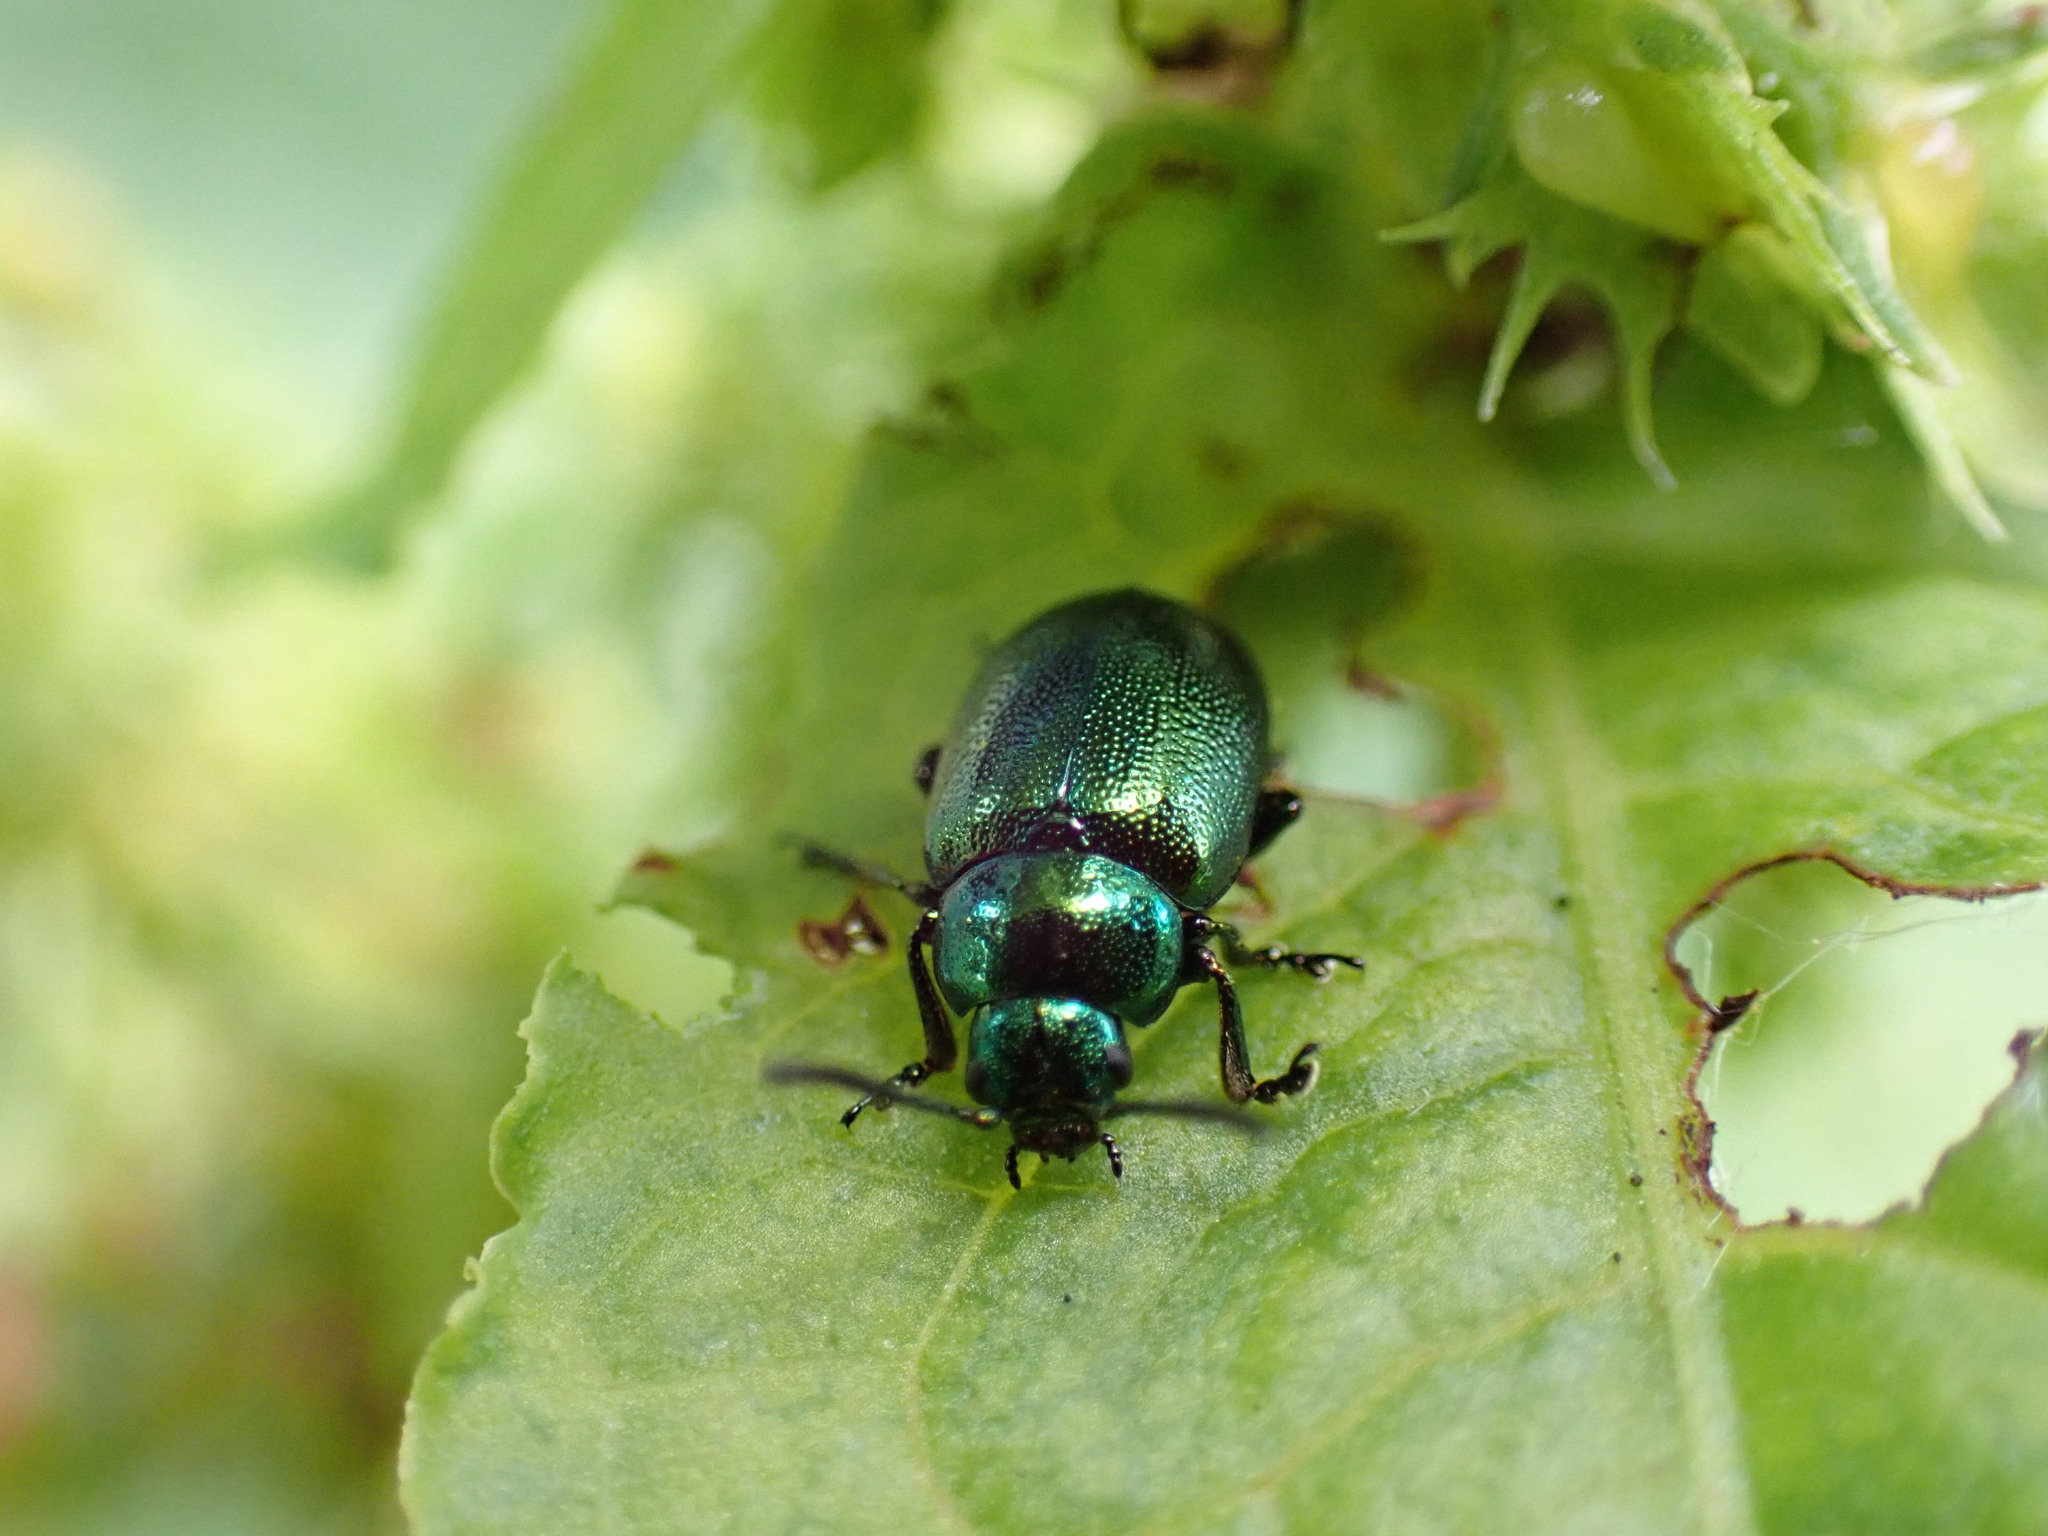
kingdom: Animalia
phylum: Arthropoda
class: Insecta
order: Coleoptera
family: Chrysomelidae
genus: Gastrophysa
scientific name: Gastrophysa viridula
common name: Green dock beetle
